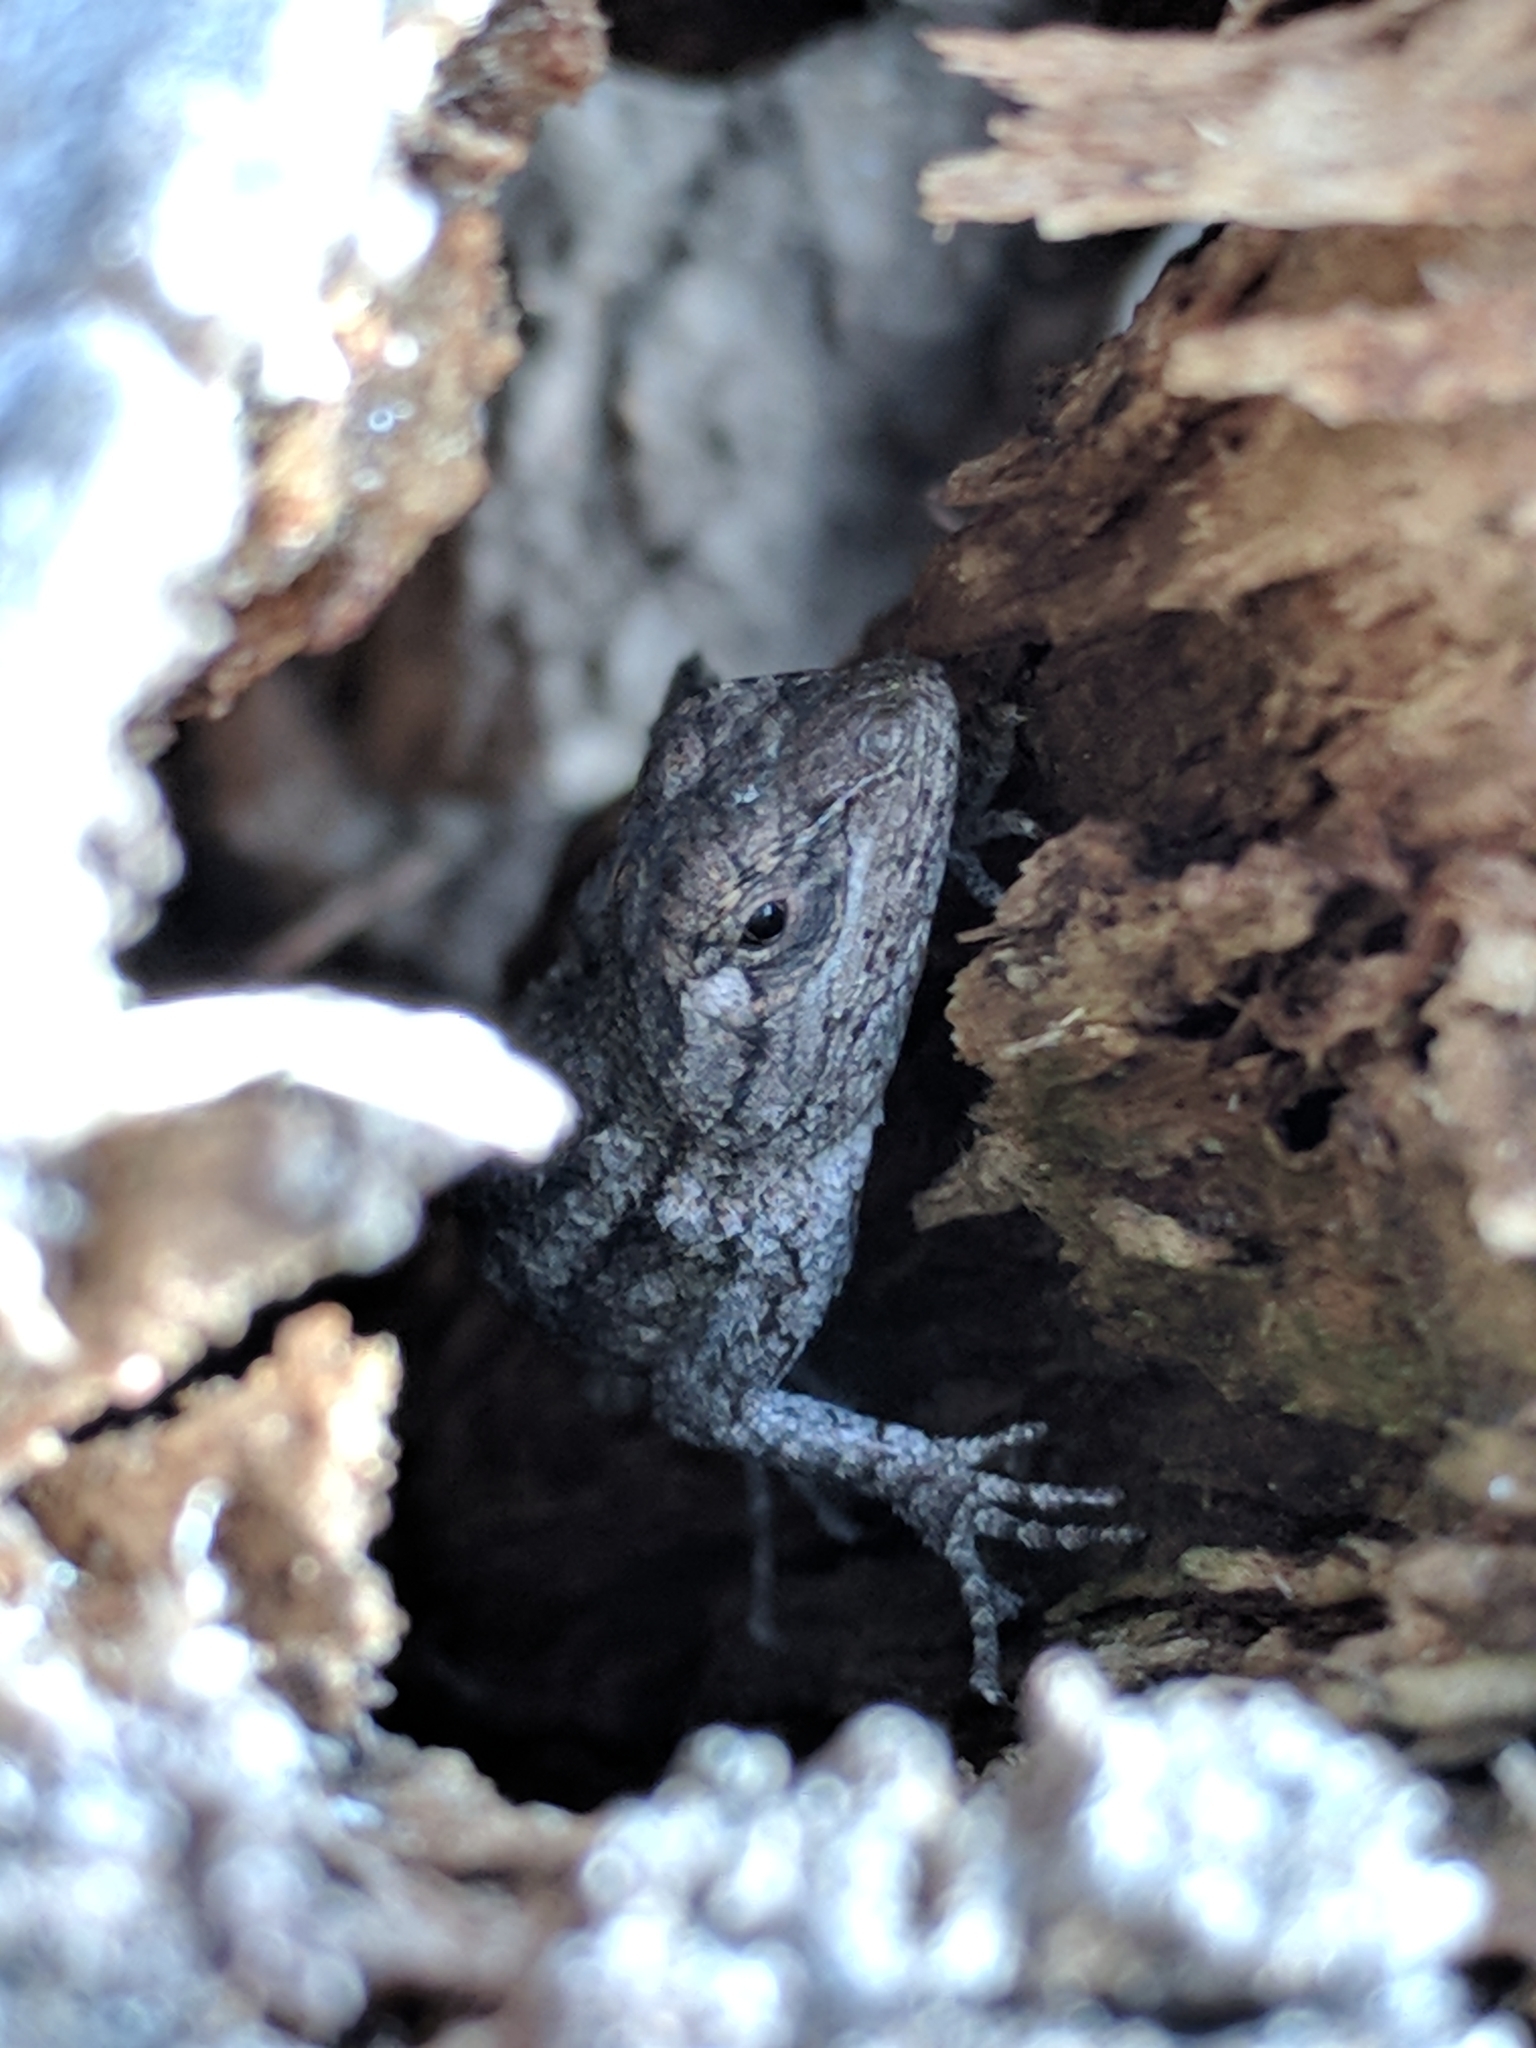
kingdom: Animalia
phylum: Chordata
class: Squamata
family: Phrynosomatidae
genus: Sceloporus
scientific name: Sceloporus olivaceus
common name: Texas spiny lizard
